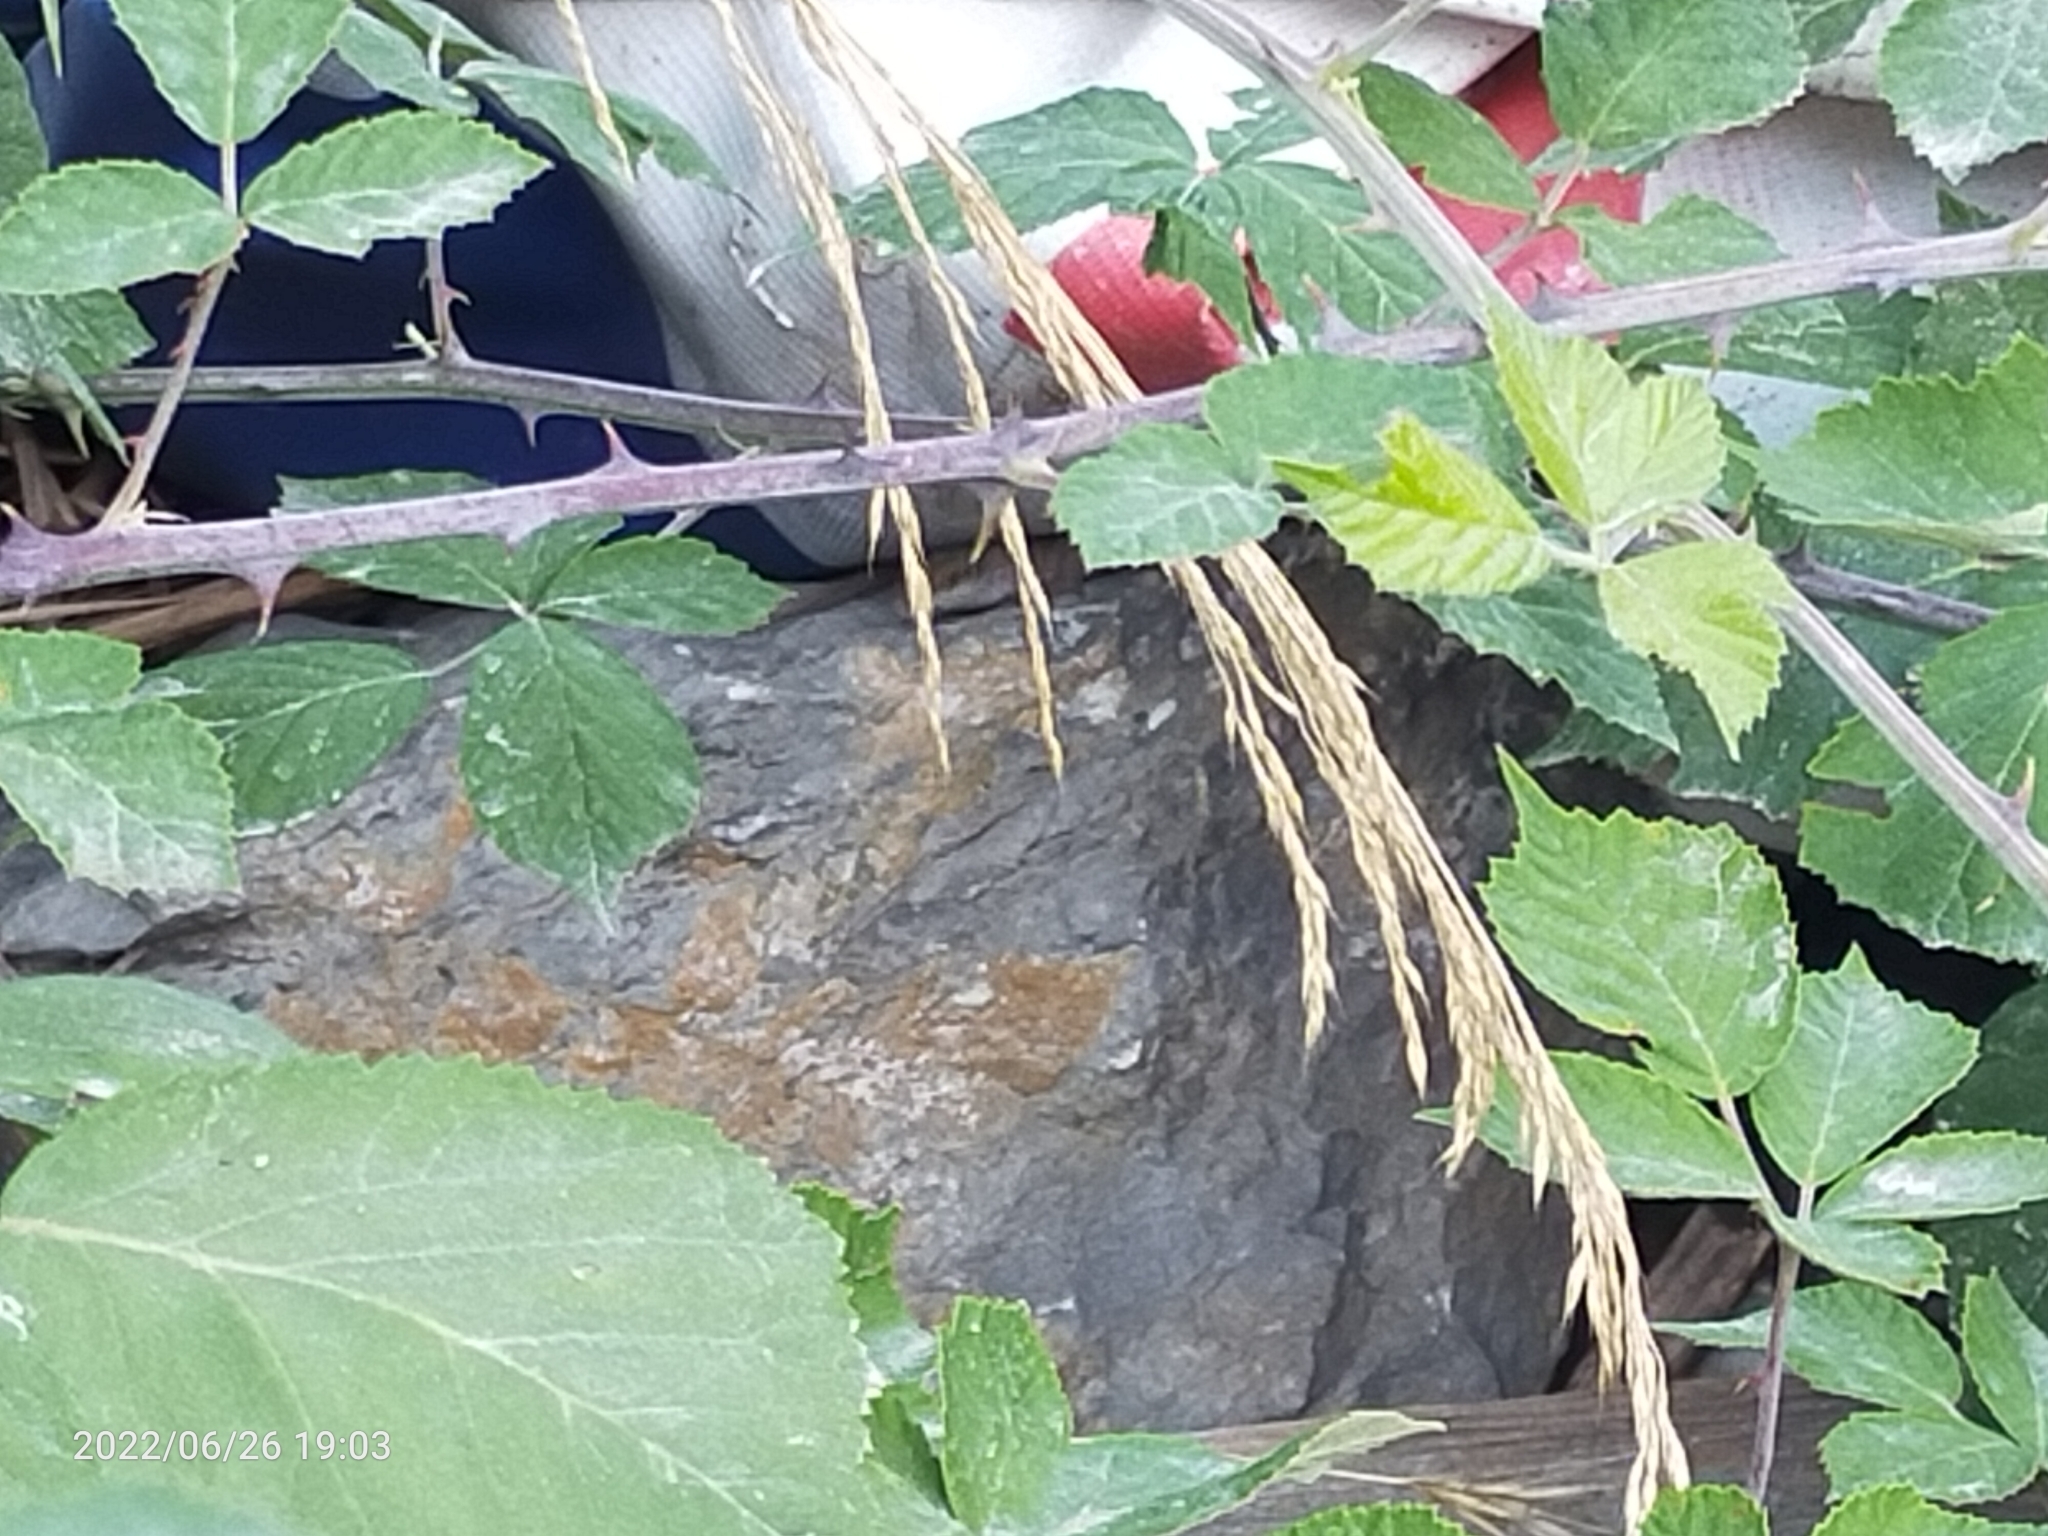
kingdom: Animalia
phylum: Chordata
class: Squamata
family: Lacertidae
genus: Podarcis
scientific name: Podarcis siculus
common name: Italian wall lizard
